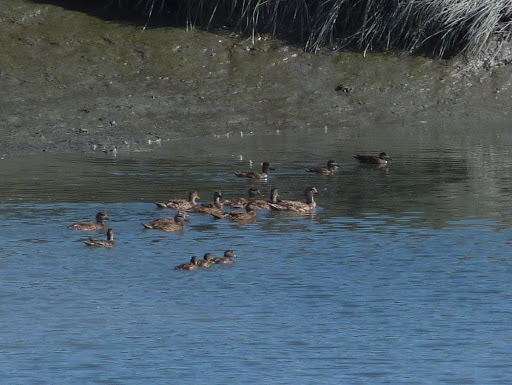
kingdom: Animalia
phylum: Chordata
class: Aves
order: Anseriformes
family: Anatidae
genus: Mareca
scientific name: Mareca strepera
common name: Gadwall
